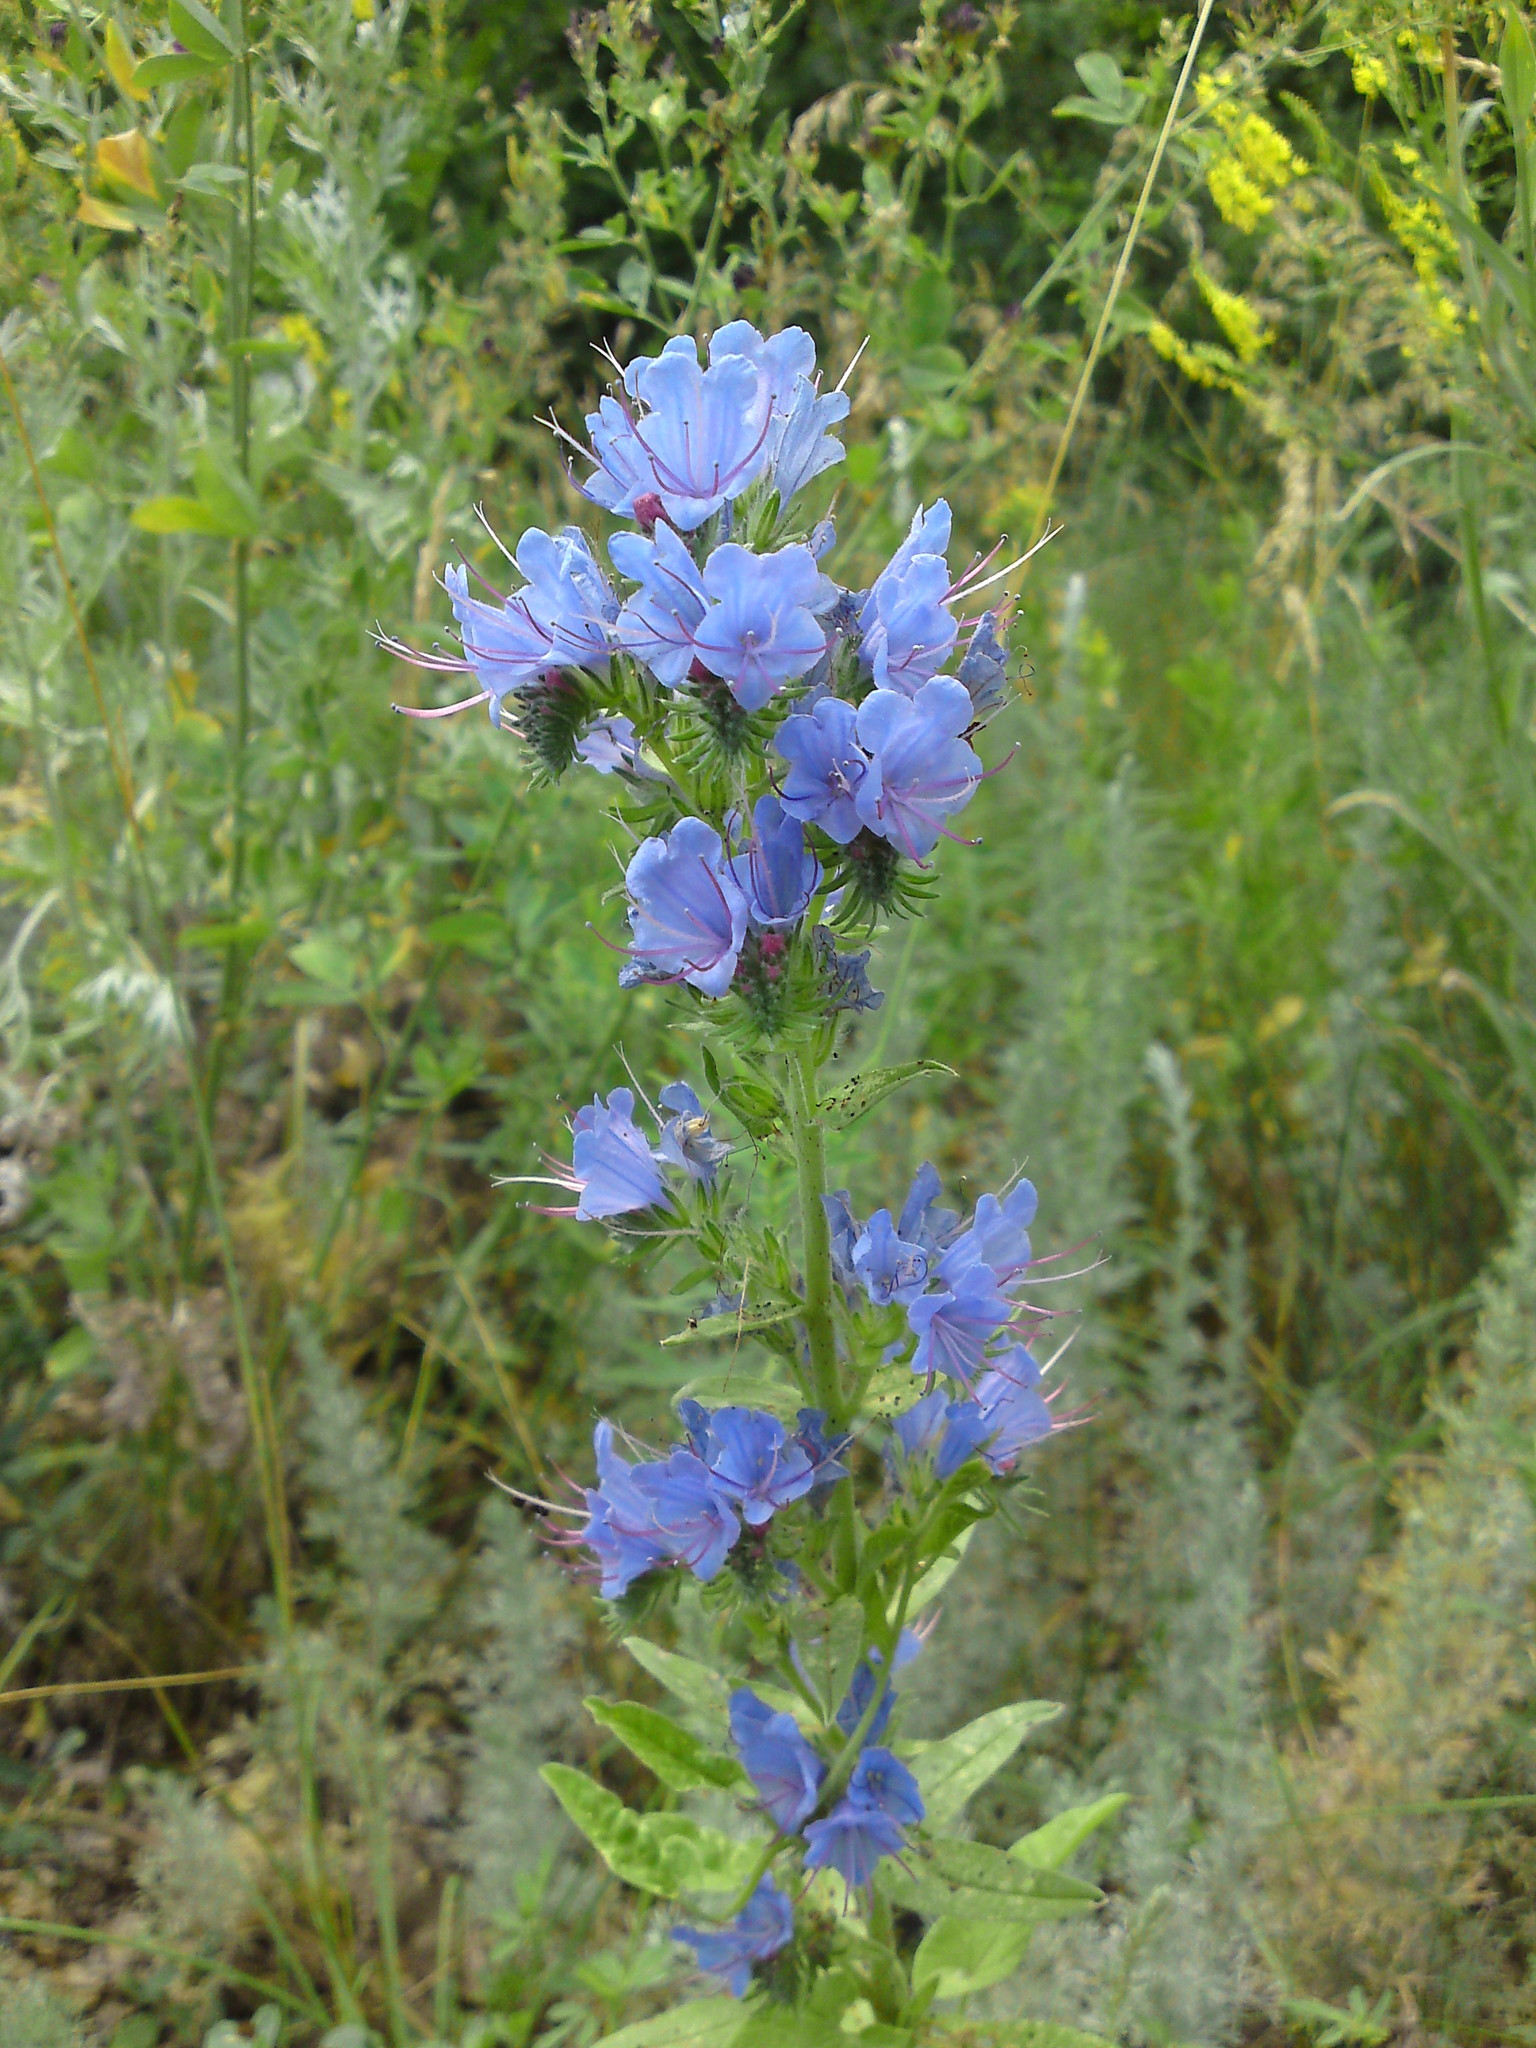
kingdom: Plantae
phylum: Tracheophyta
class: Magnoliopsida
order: Boraginales
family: Boraginaceae
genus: Echium
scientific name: Echium vulgare
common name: Common viper's bugloss
